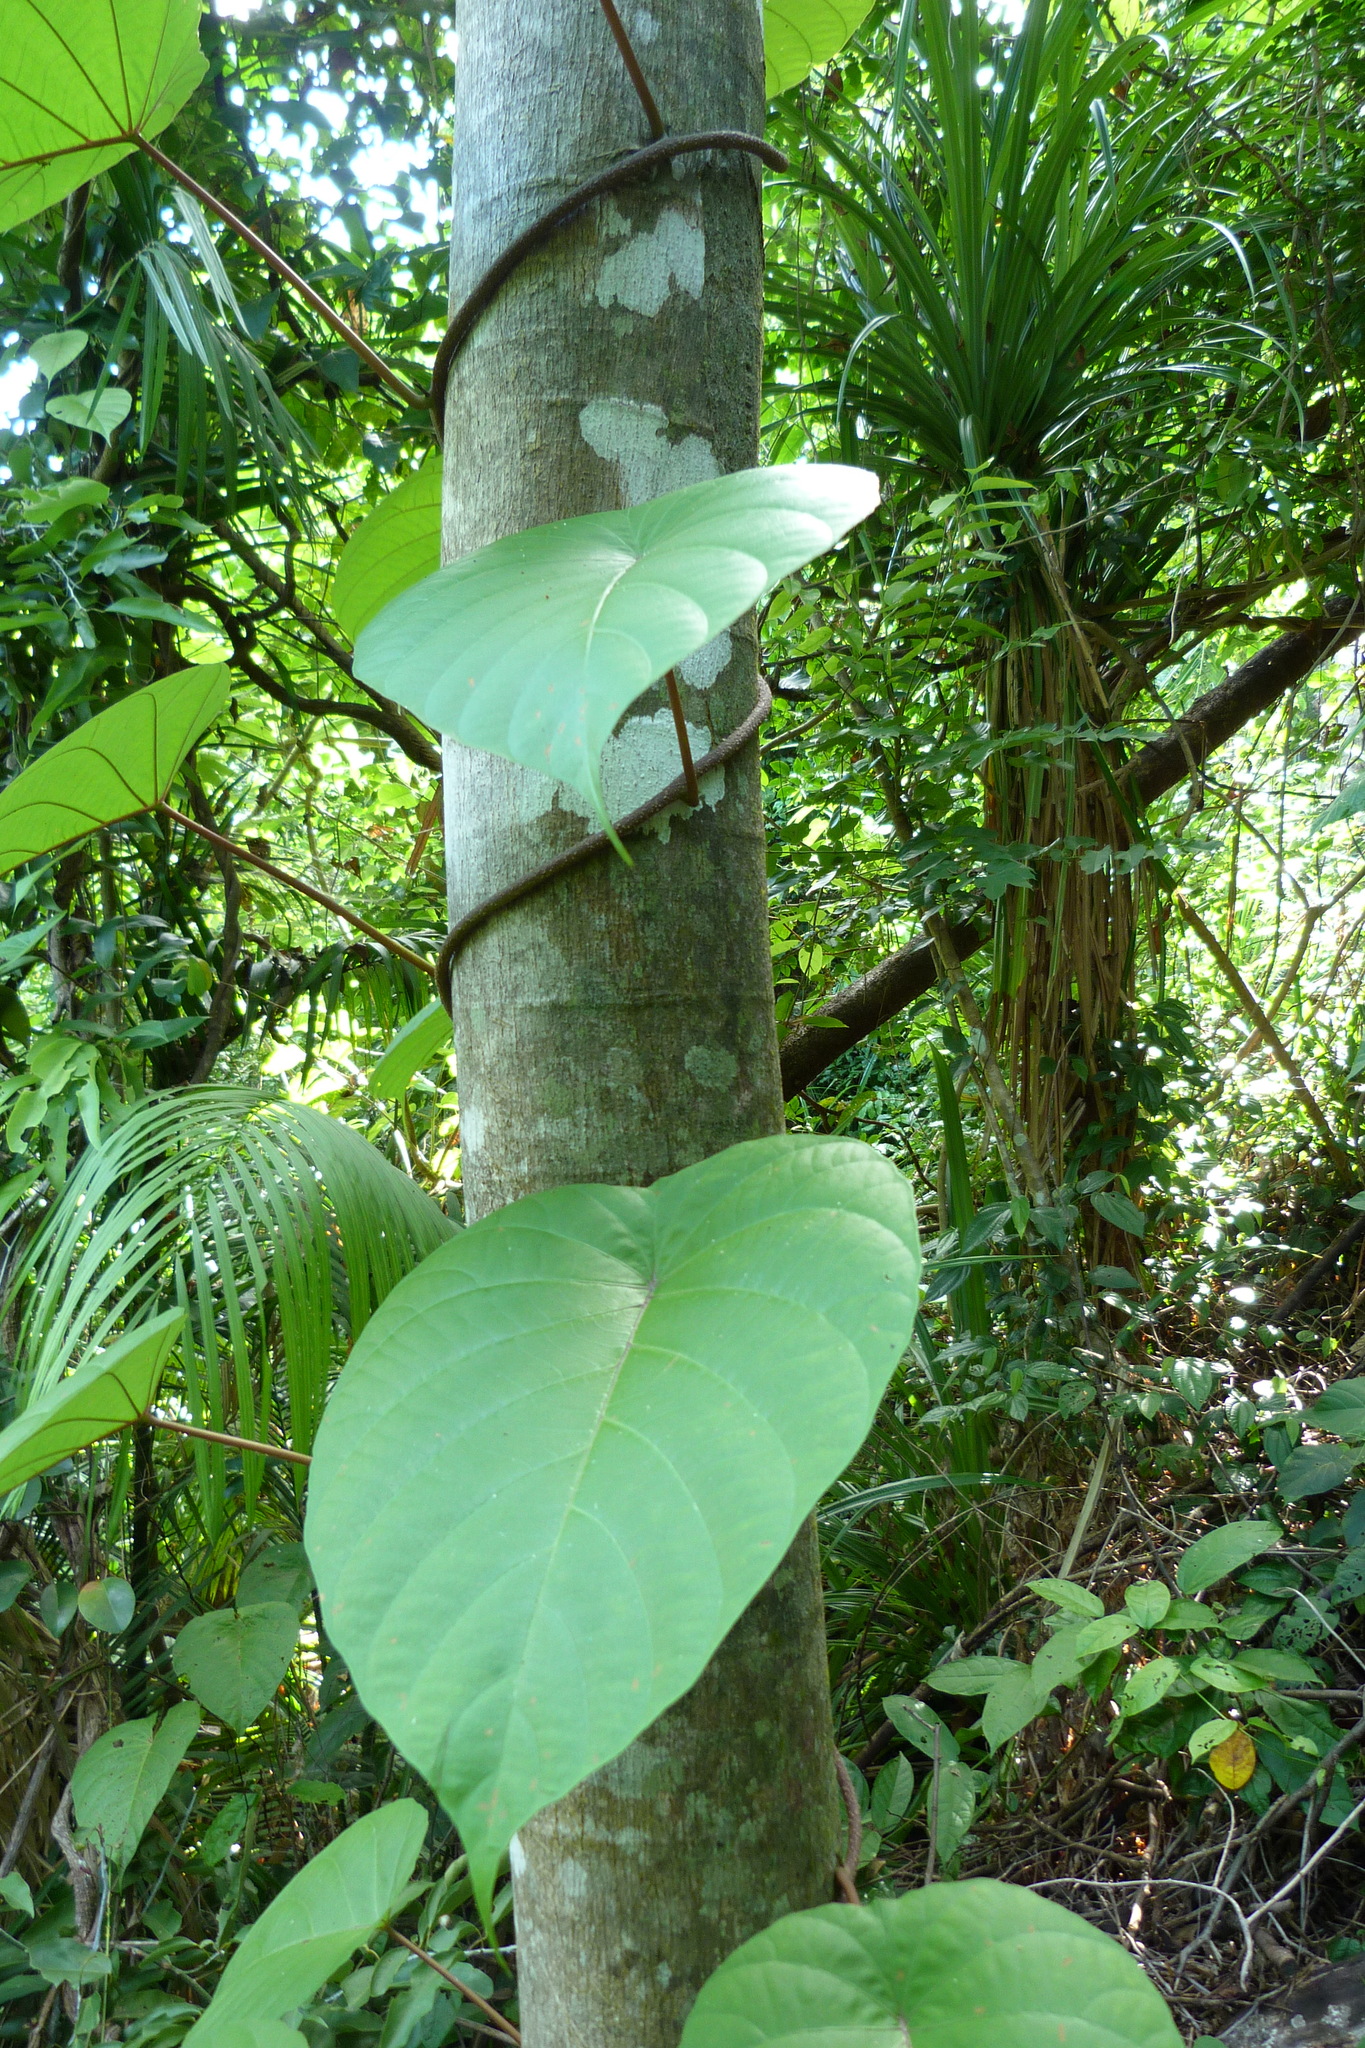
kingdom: Plantae
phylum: Tracheophyta
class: Magnoliopsida
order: Solanales
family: Convolvulaceae
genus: Decalobanthus
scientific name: Decalobanthus peltatus
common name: Merremia
